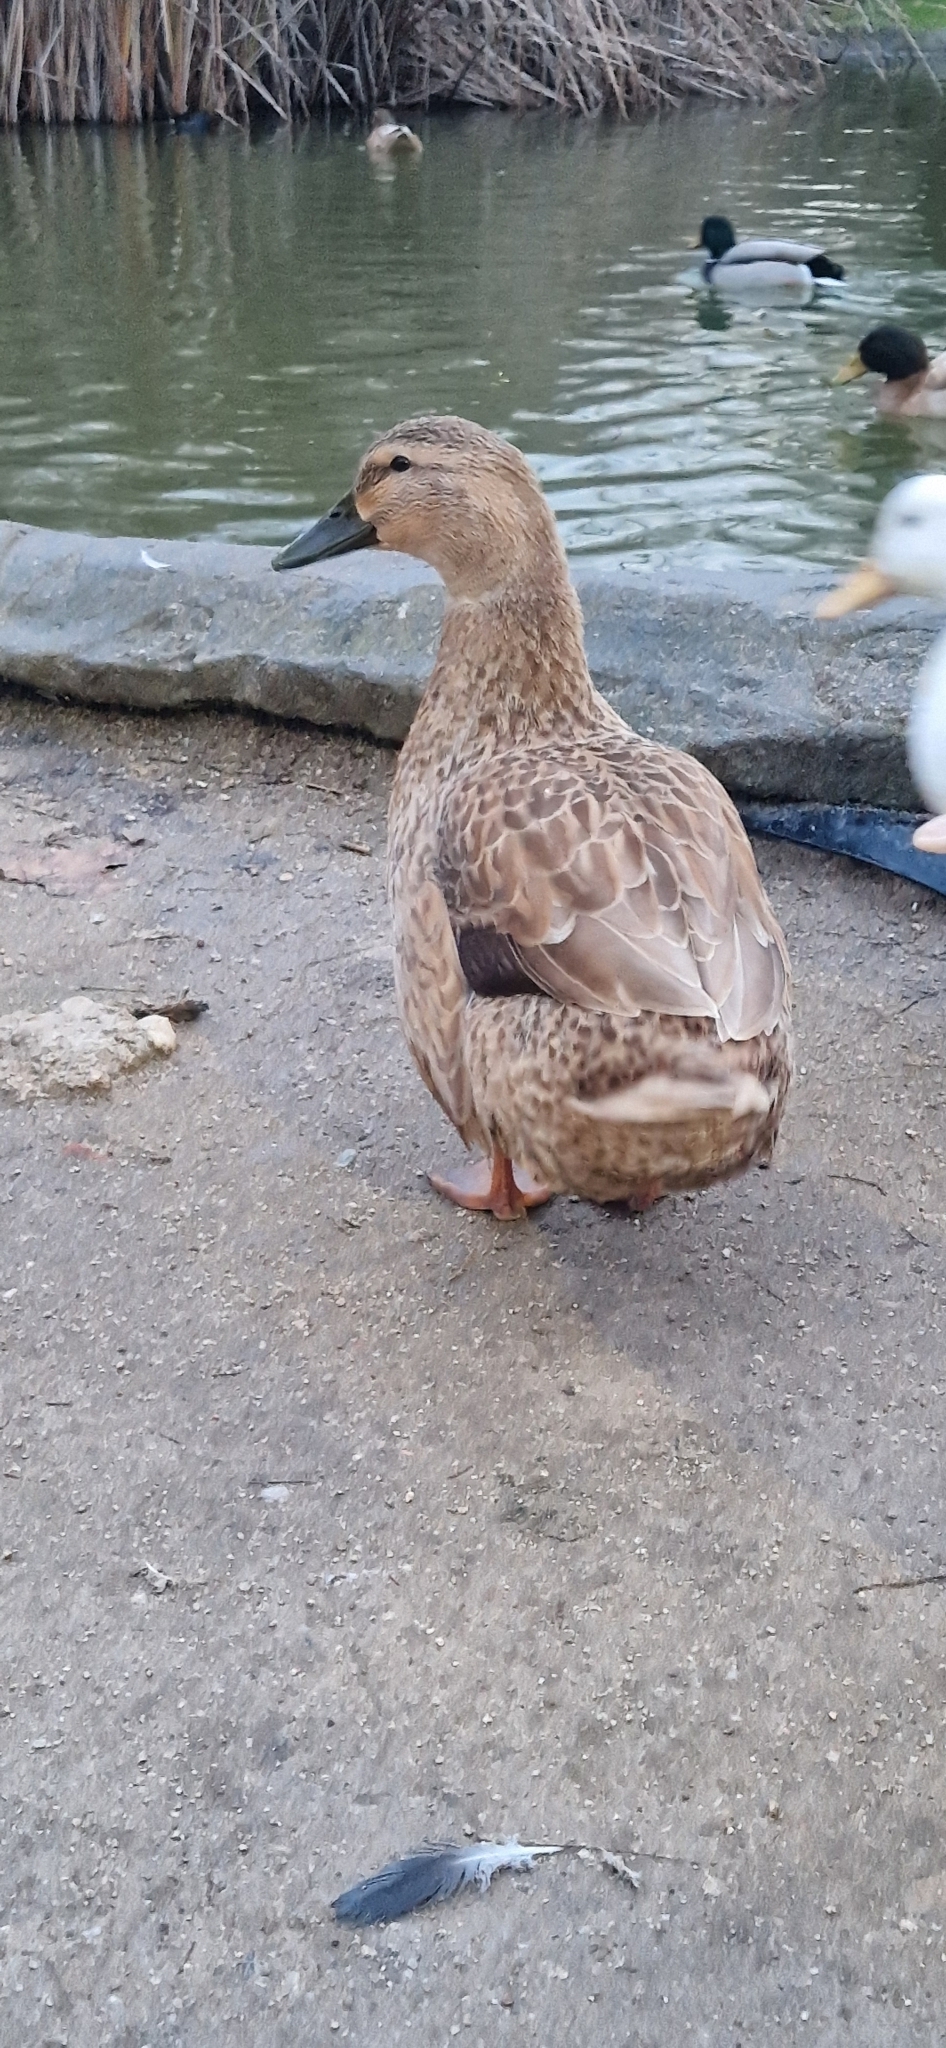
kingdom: Animalia
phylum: Chordata
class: Aves
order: Anseriformes
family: Anatidae
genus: Anas
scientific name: Anas platyrhynchos
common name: Mallard
